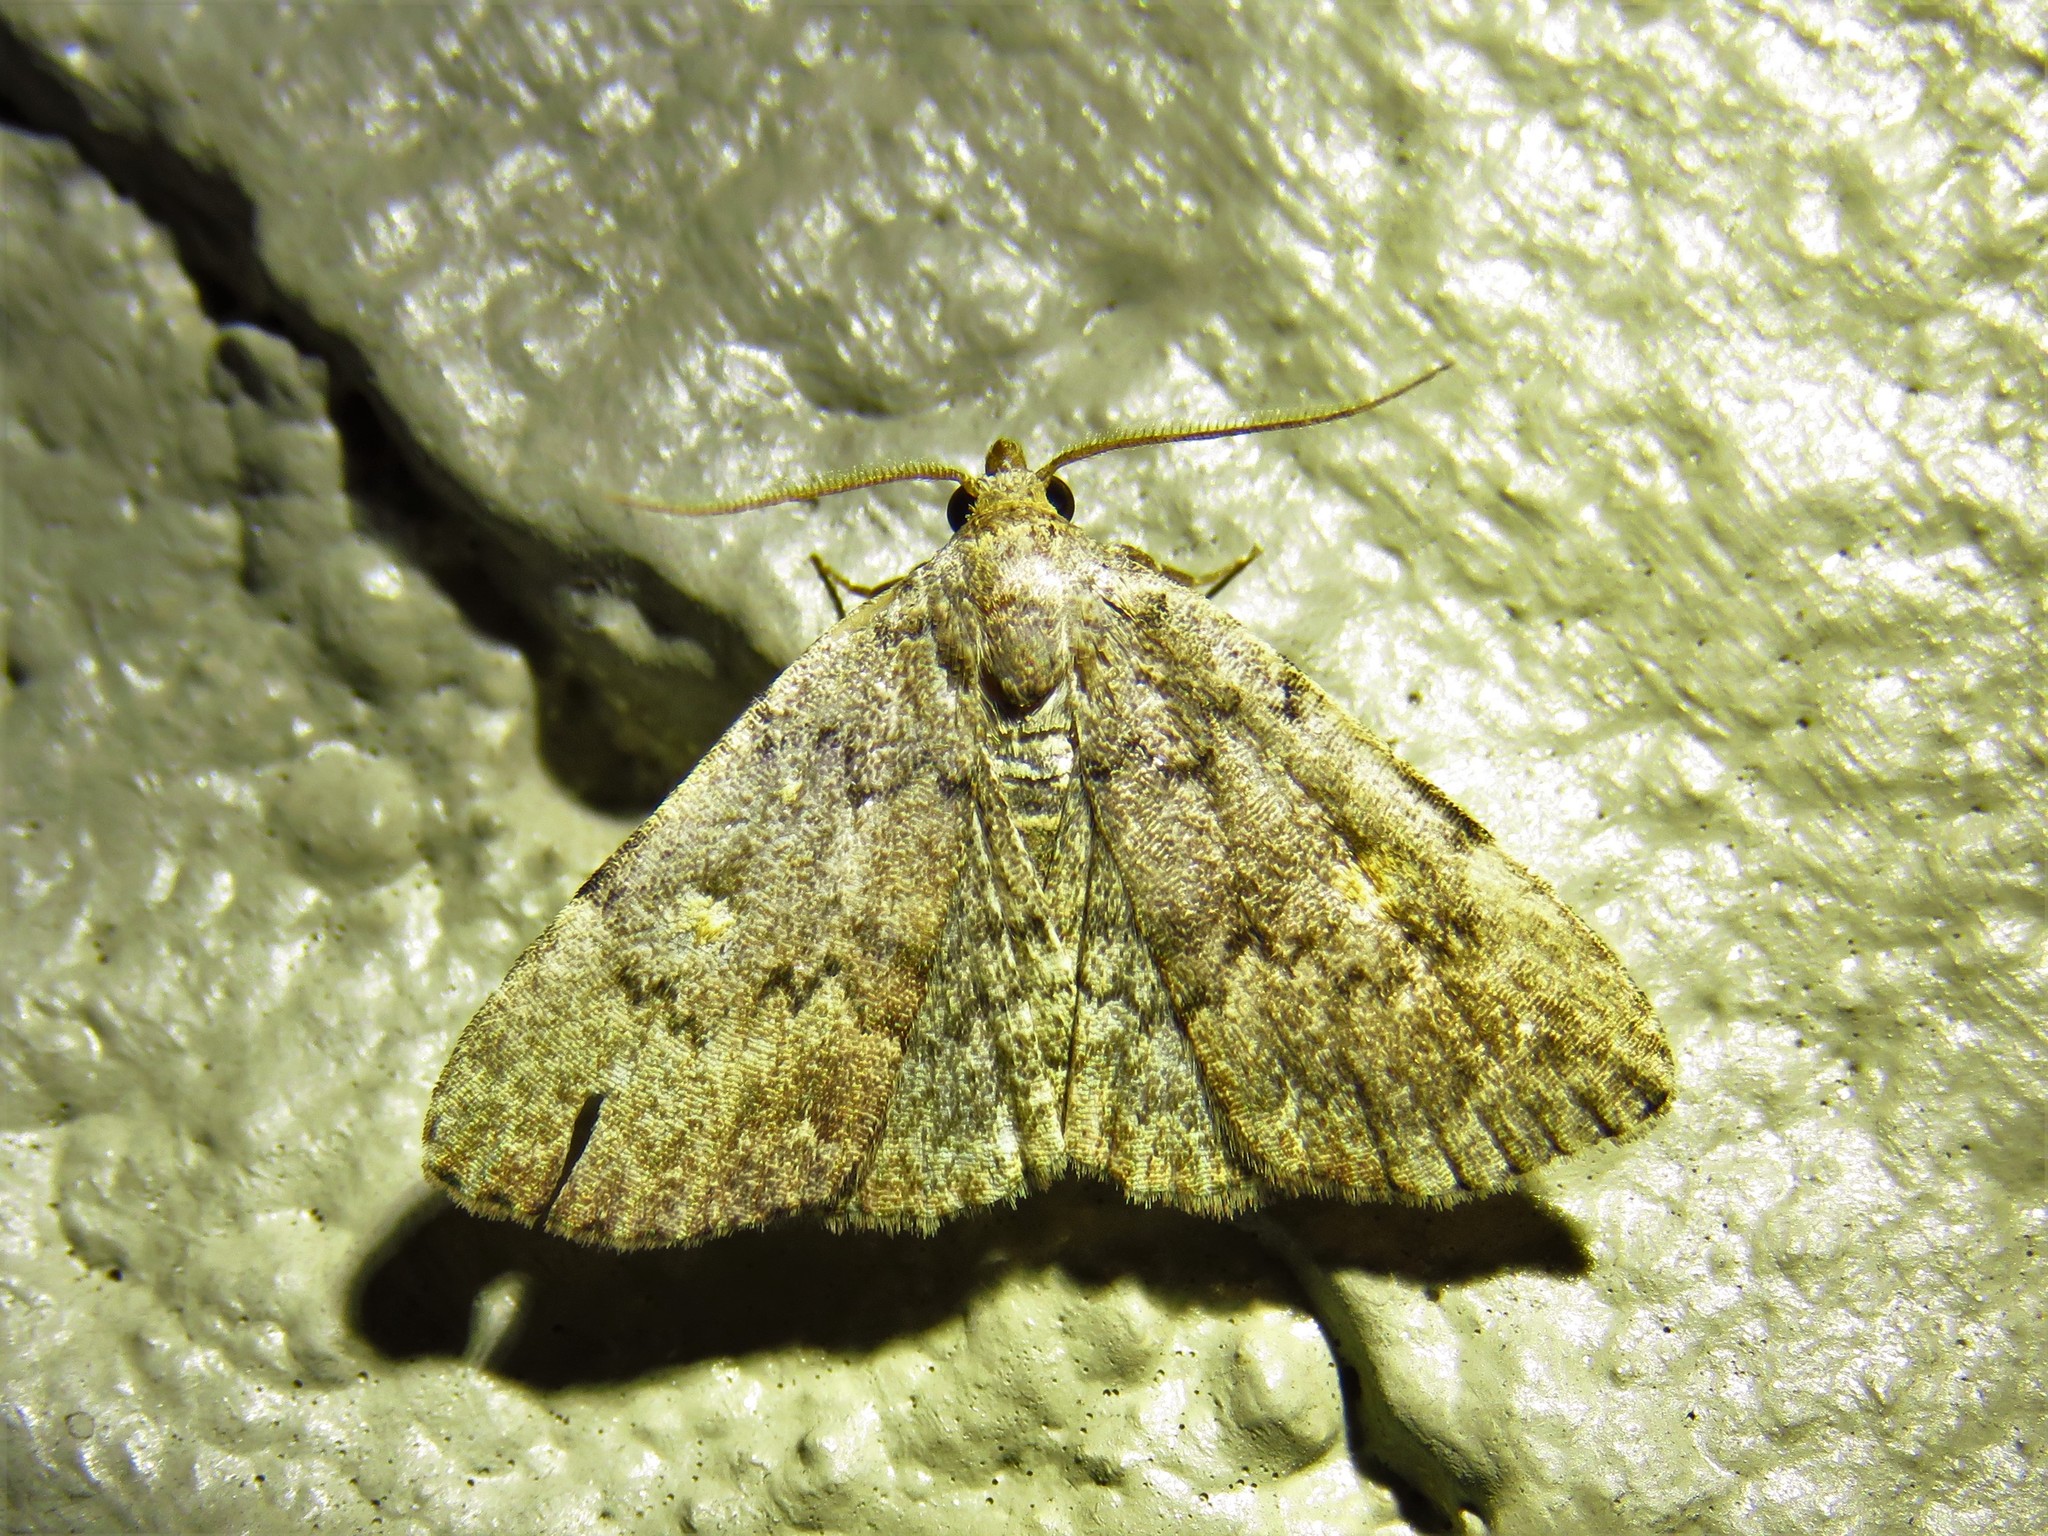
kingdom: Animalia
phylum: Arthropoda
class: Insecta
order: Lepidoptera
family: Erebidae
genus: Idia
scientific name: Idia aemula
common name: Common idia moth
